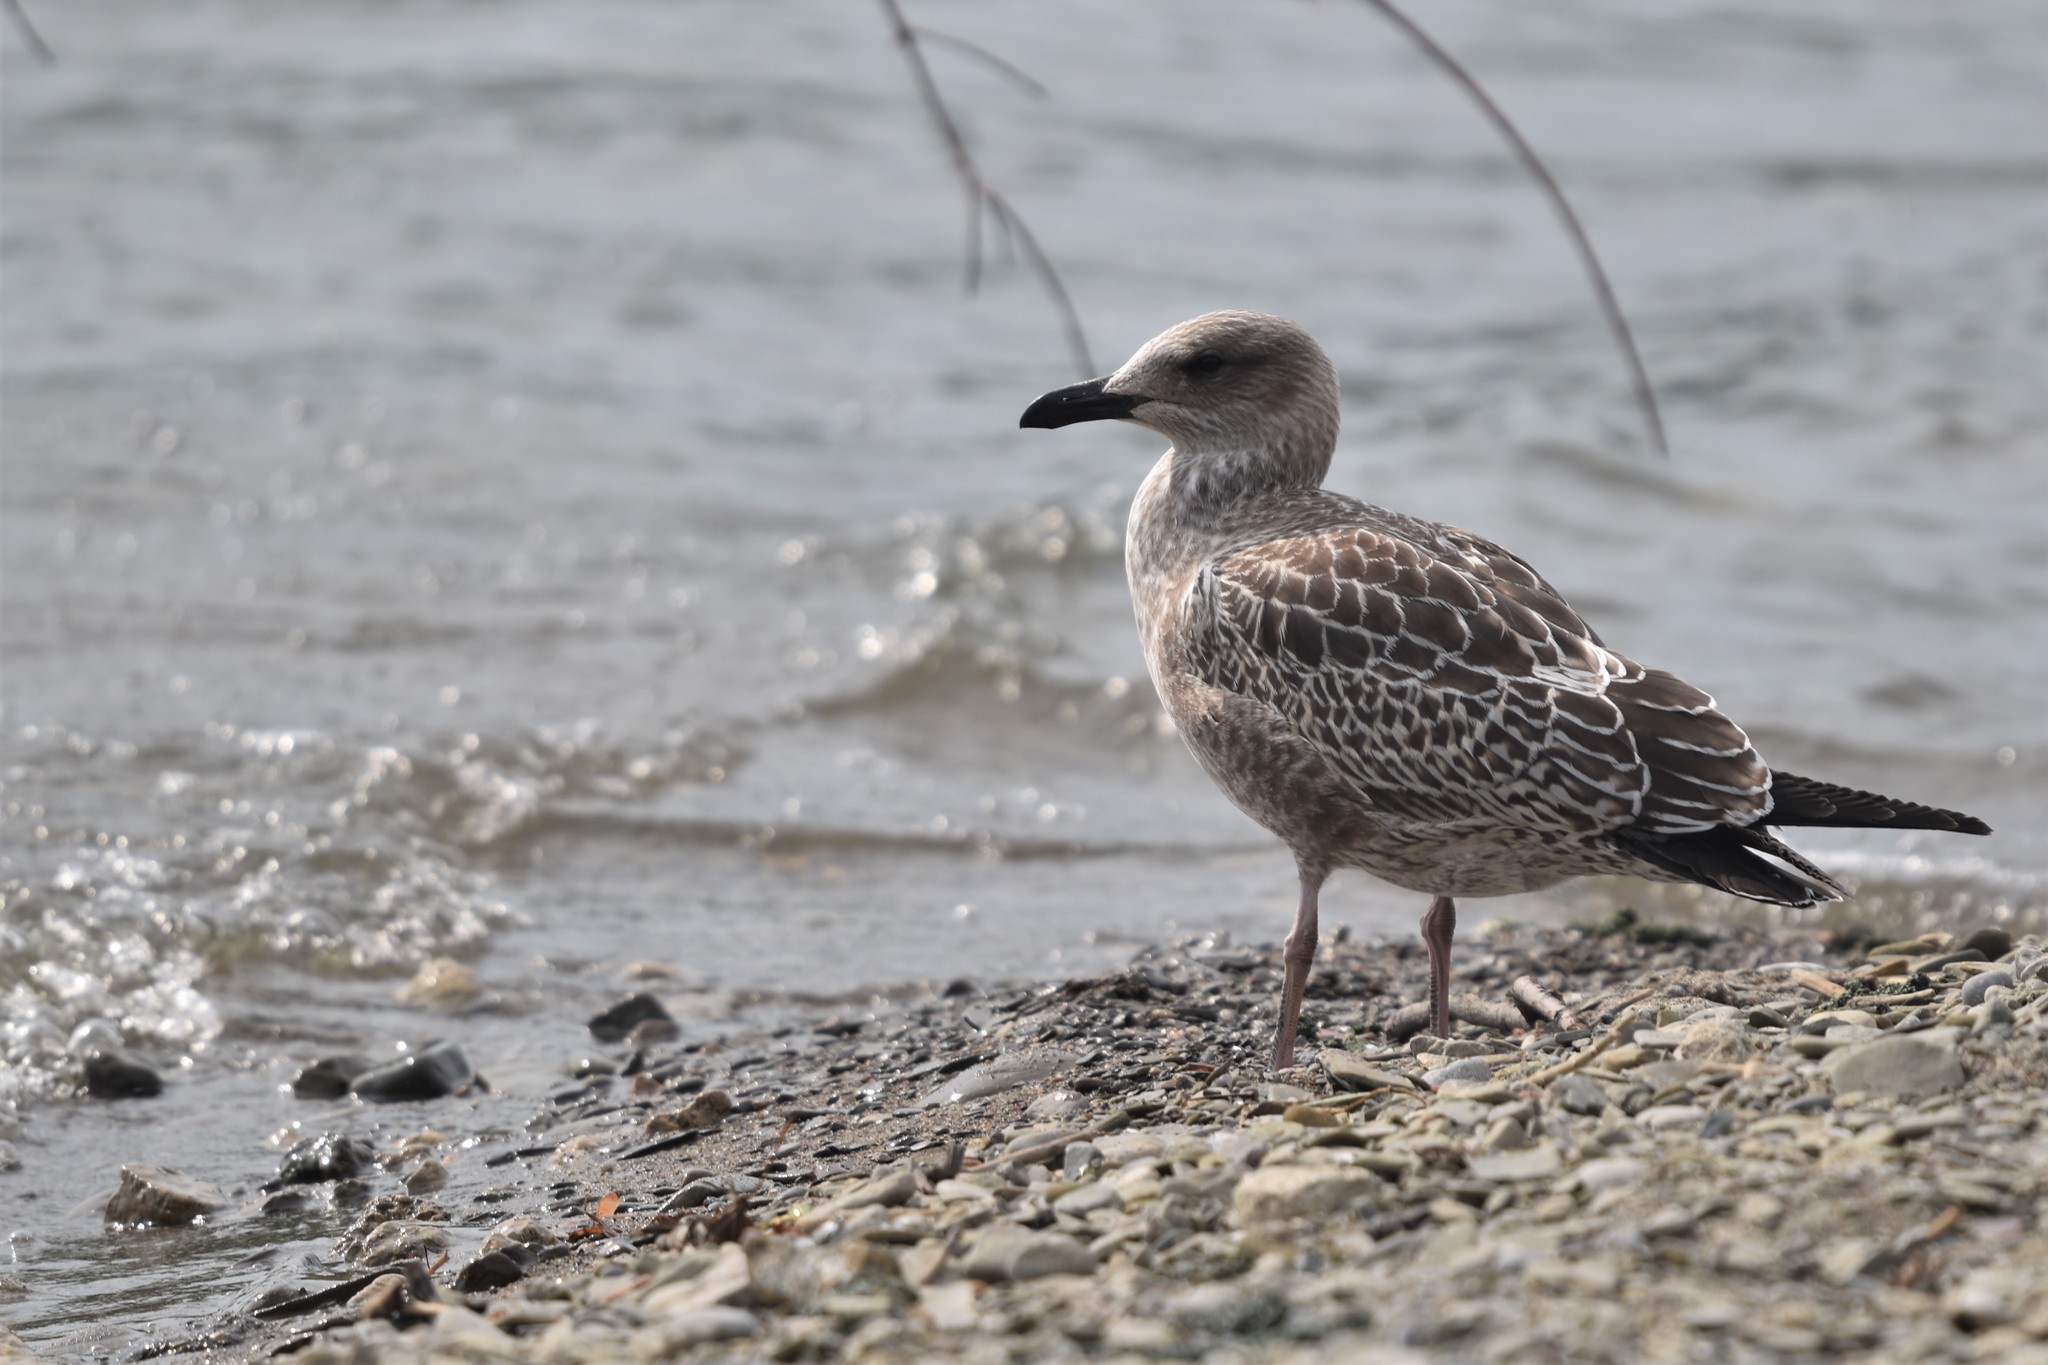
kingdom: Animalia
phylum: Chordata
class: Aves
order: Charadriiformes
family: Laridae
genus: Larus
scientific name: Larus fuscus
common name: Lesser black-backed gull
